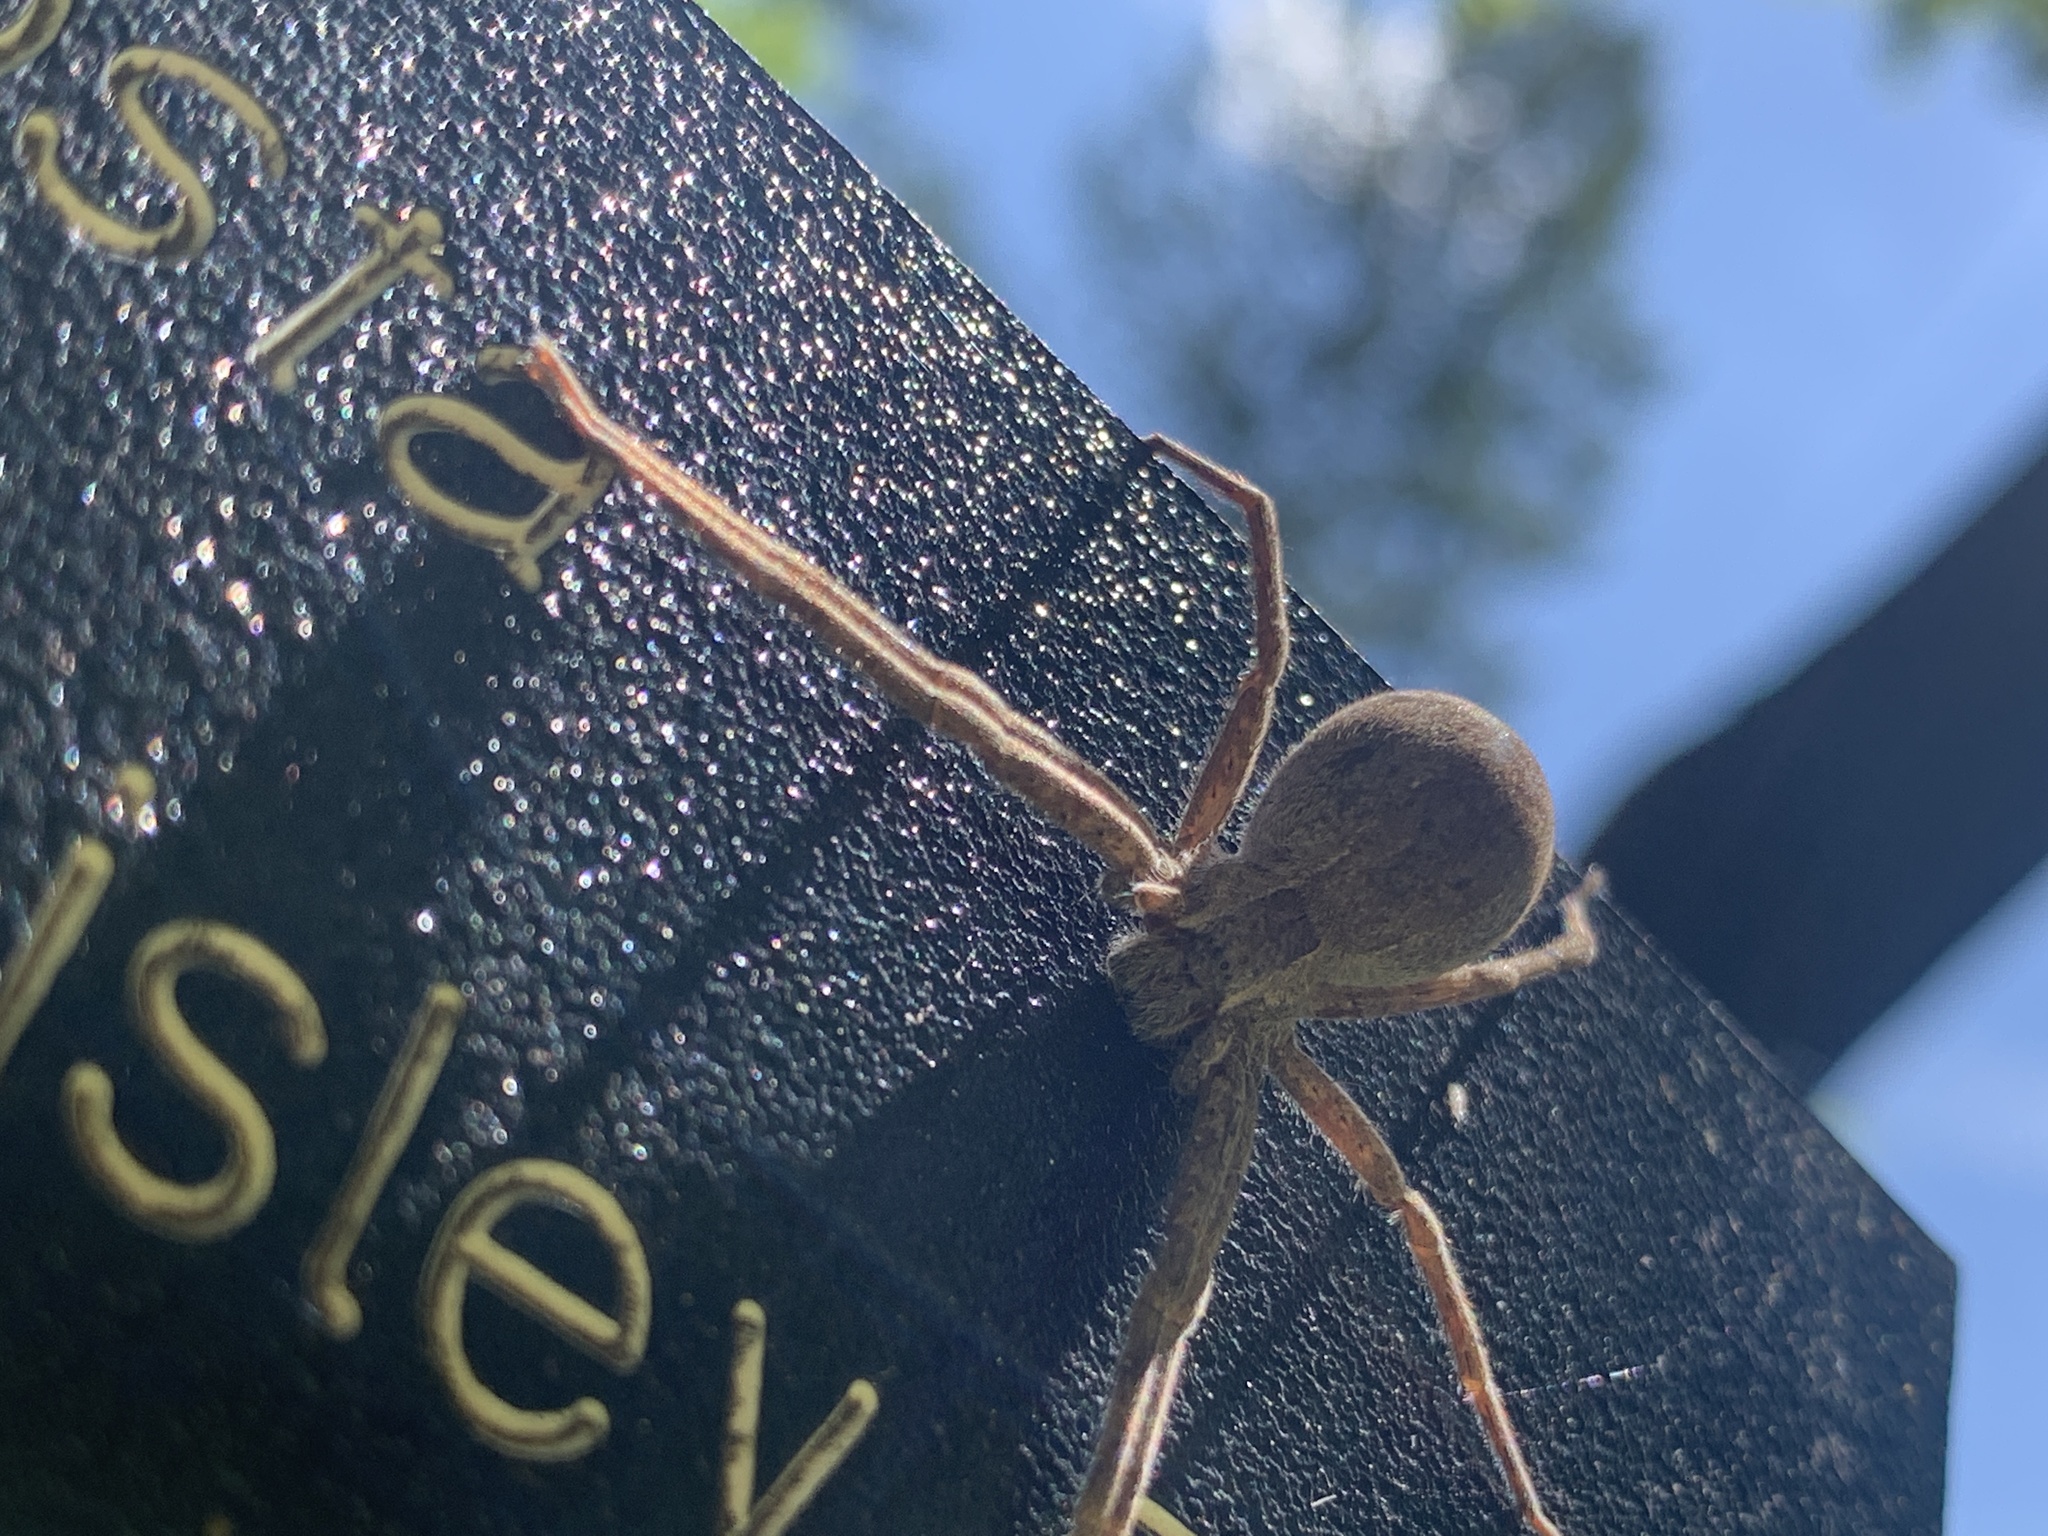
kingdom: Animalia
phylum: Arthropoda
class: Arachnida
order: Araneae
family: Pisauridae
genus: Pisaurina
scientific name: Pisaurina mira
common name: American nursery web spider
